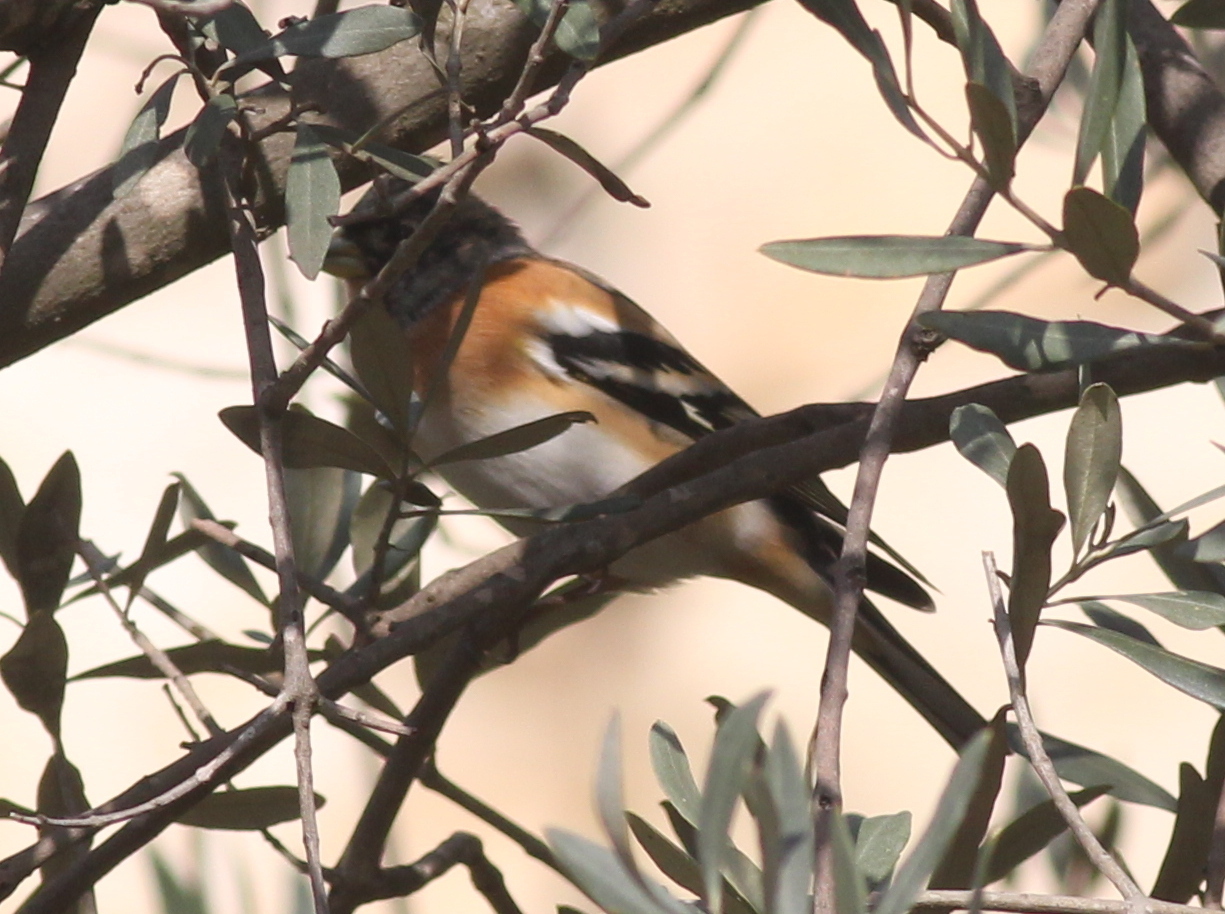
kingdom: Animalia
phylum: Chordata
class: Aves
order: Passeriformes
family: Fringillidae
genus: Fringilla
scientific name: Fringilla montifringilla
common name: Brambling
